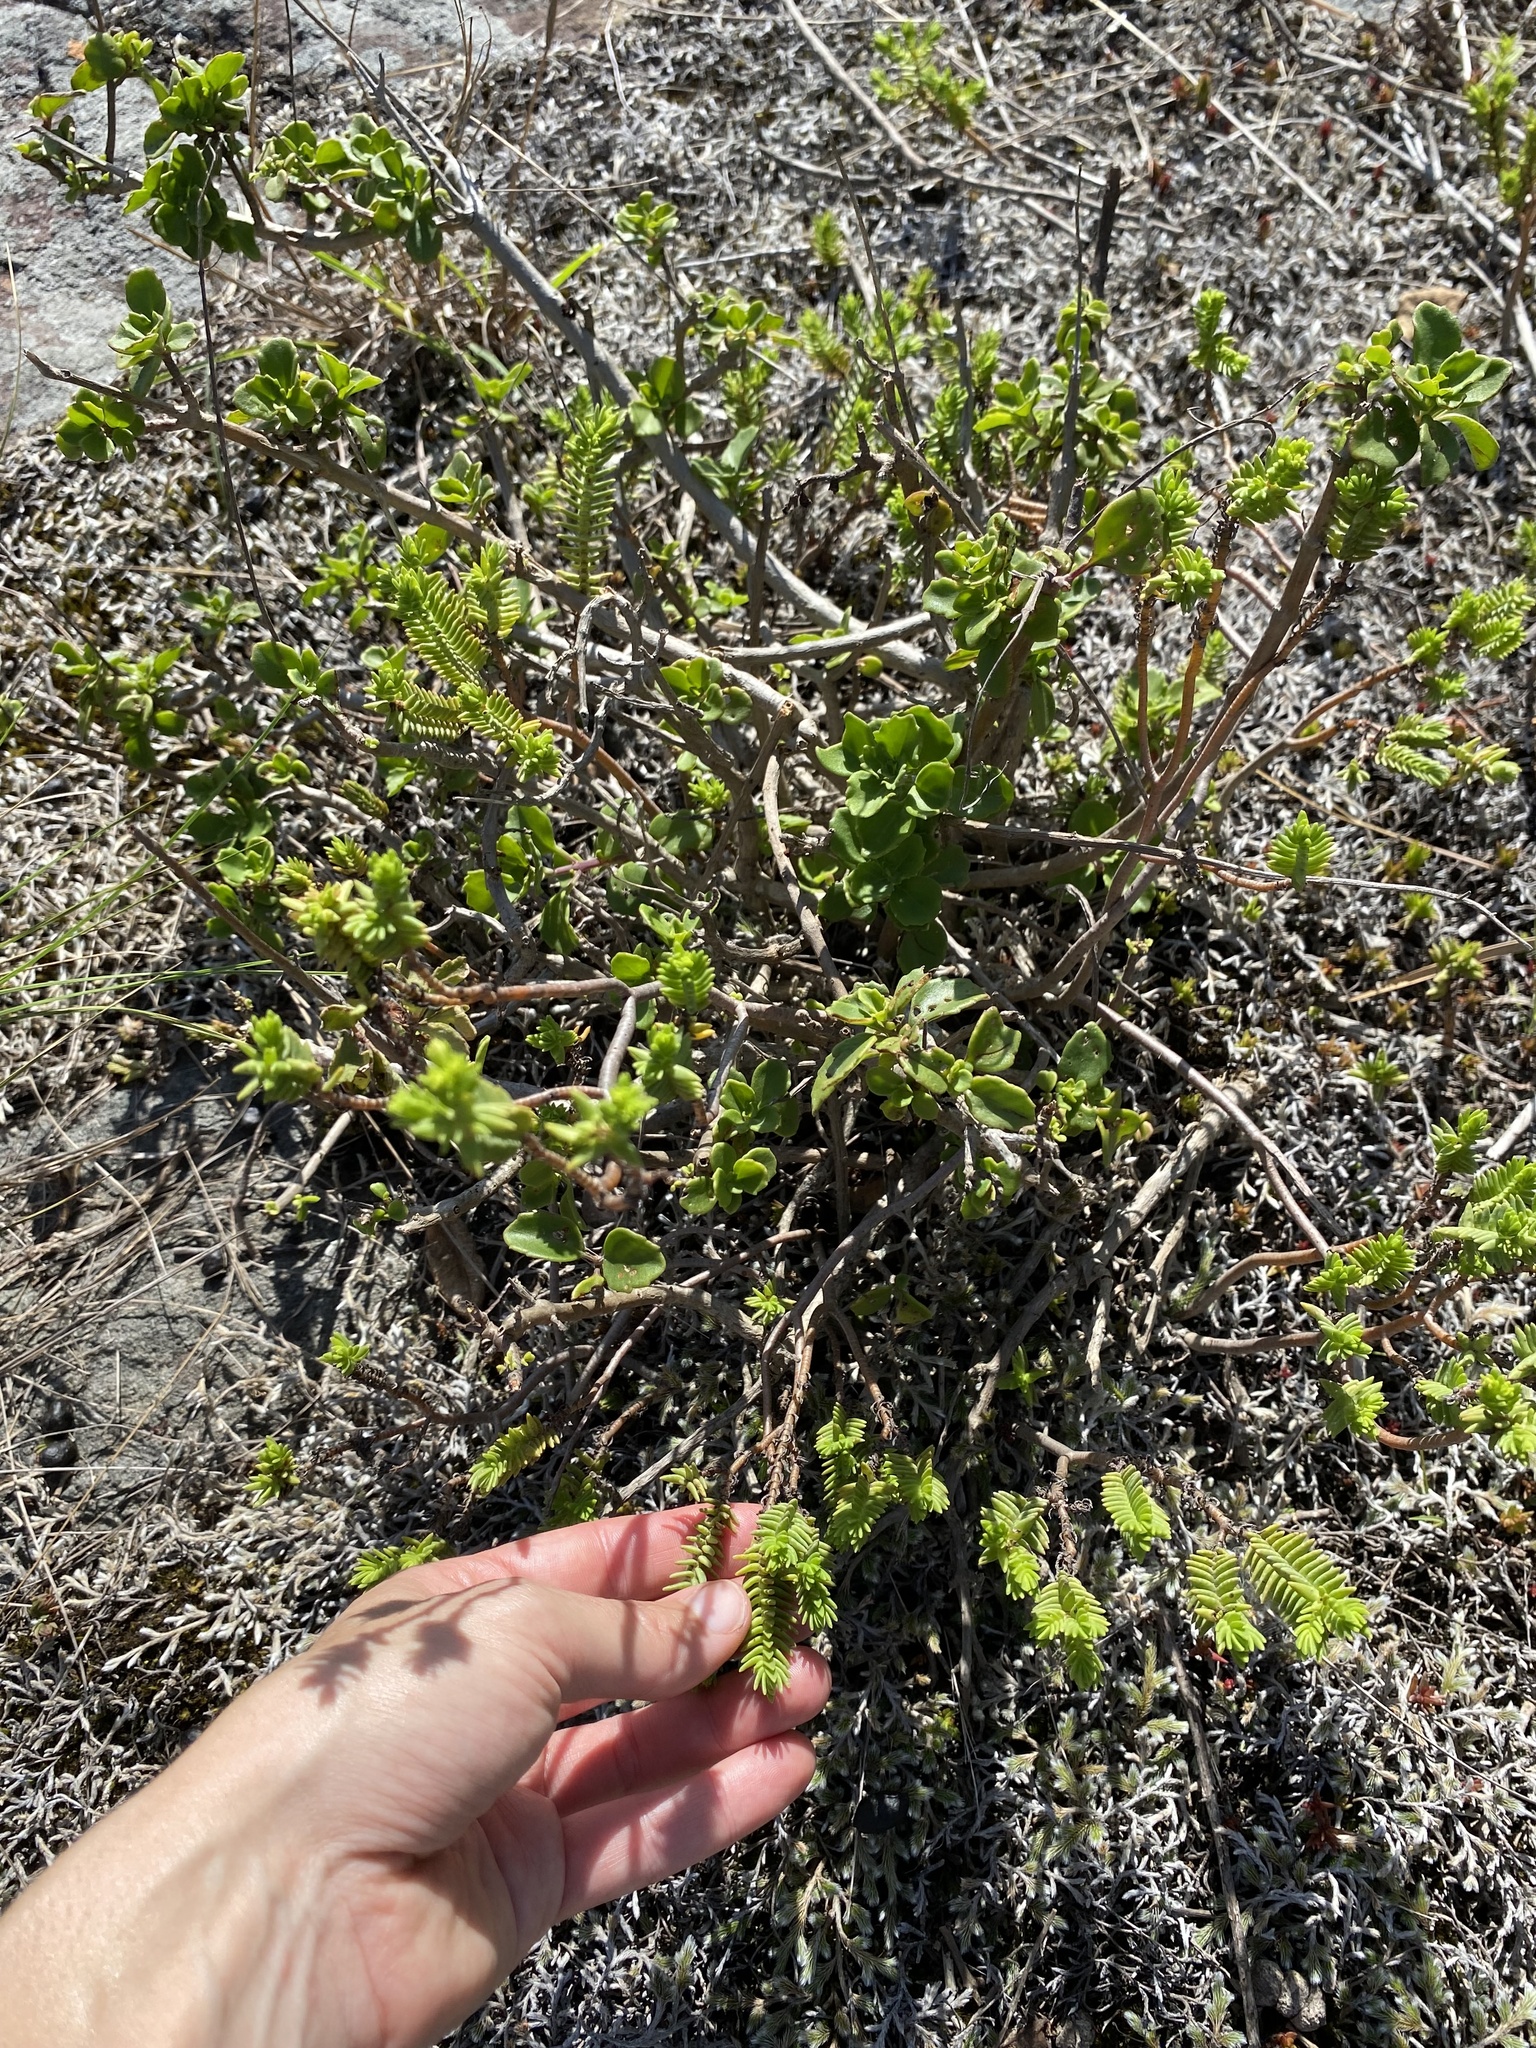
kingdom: Plantae
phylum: Tracheophyta
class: Magnoliopsida
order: Saxifragales
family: Crassulaceae
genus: Crassula
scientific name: Crassula ericoides
